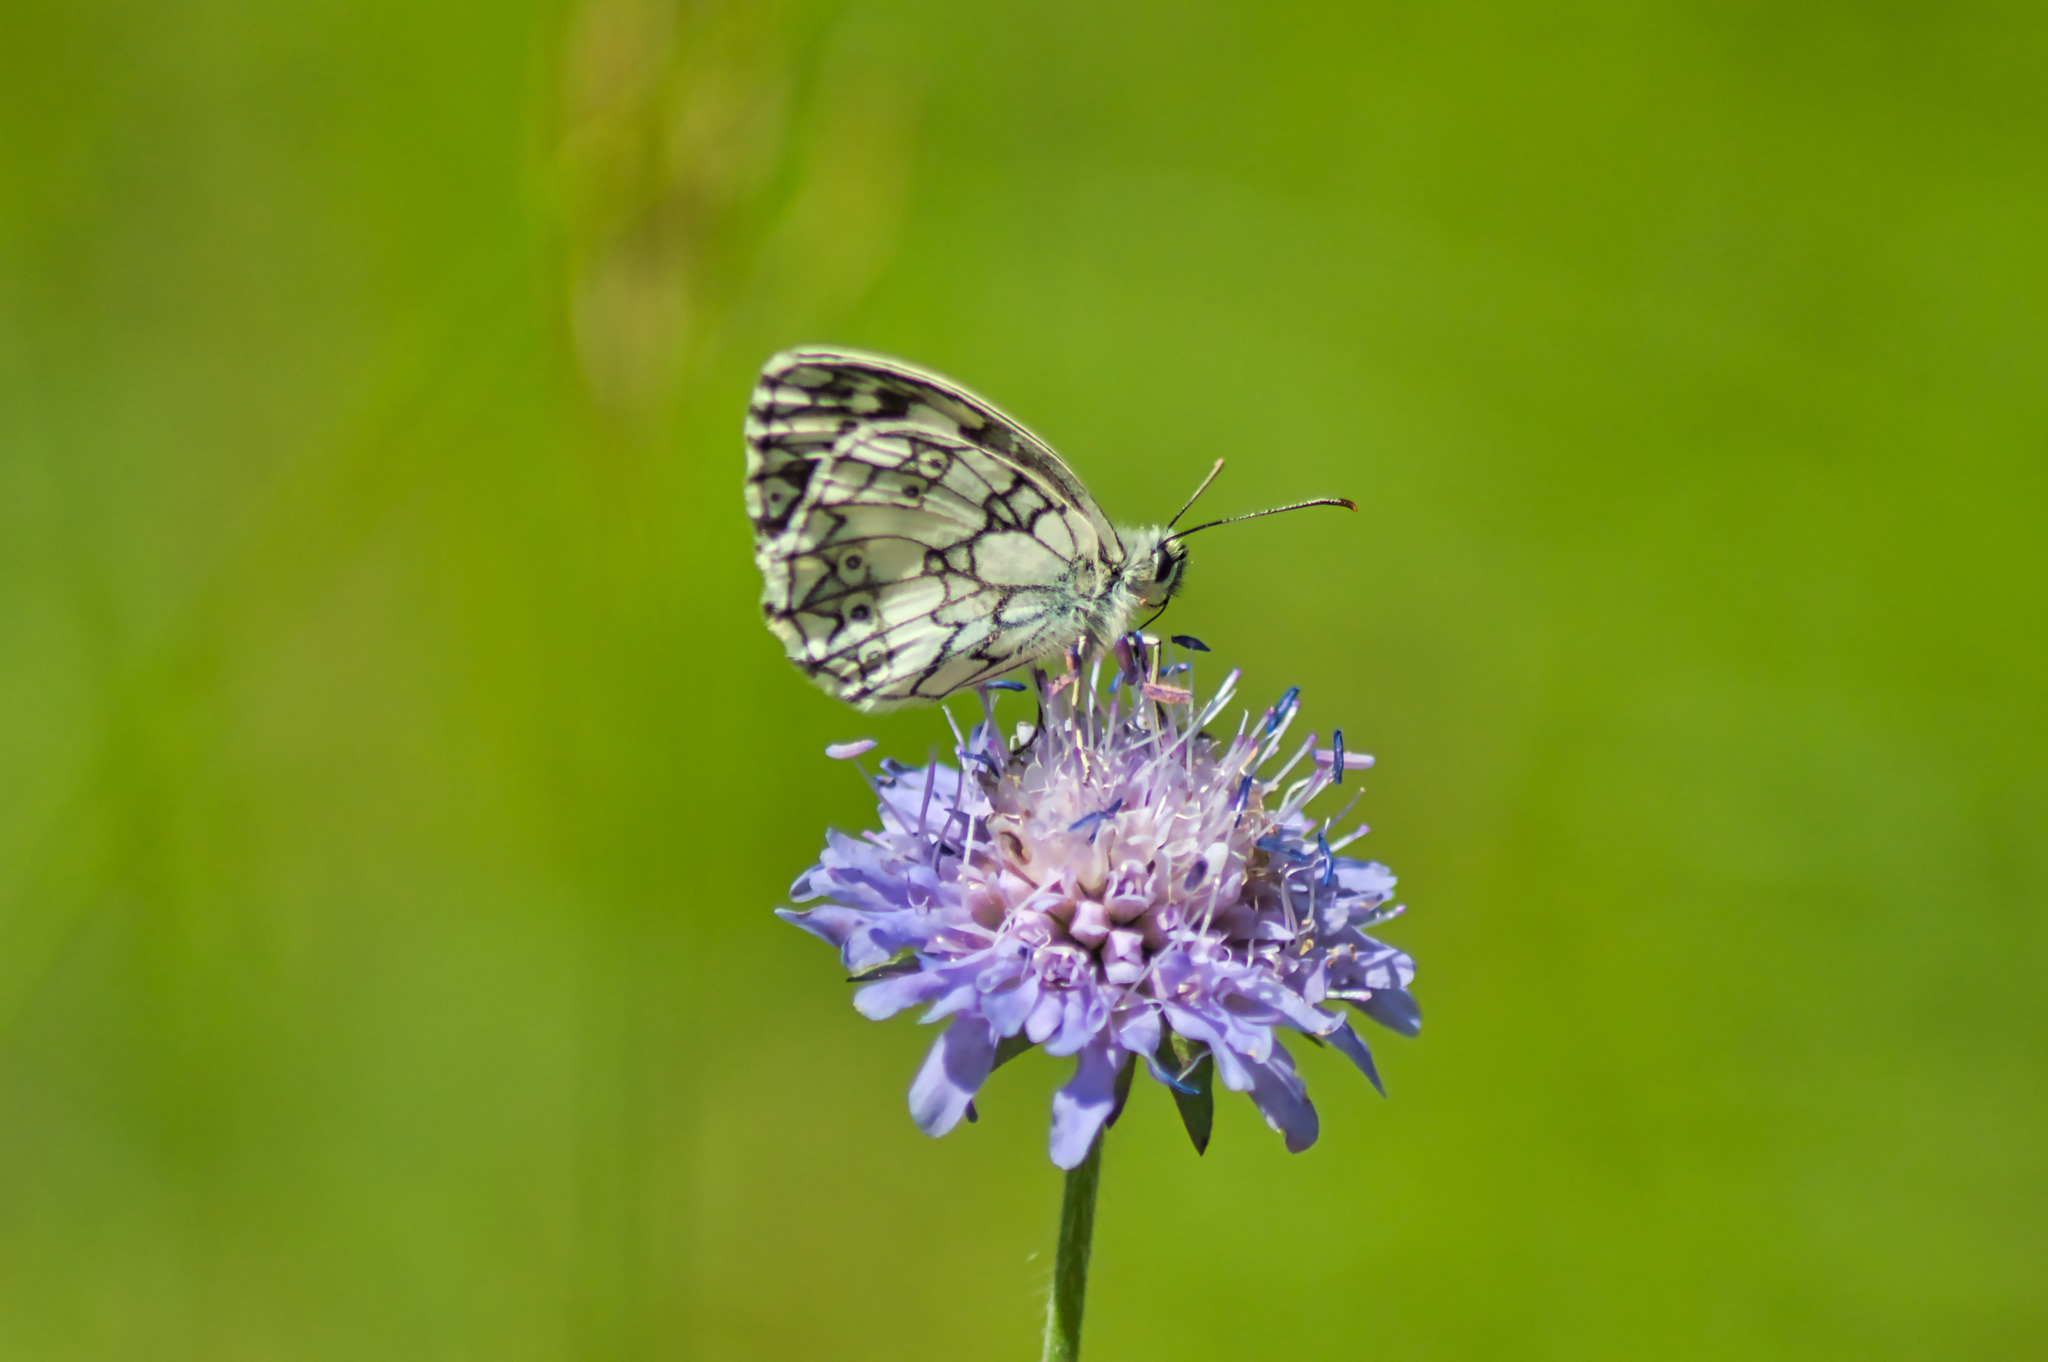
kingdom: Animalia
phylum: Arthropoda
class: Insecta
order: Lepidoptera
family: Nymphalidae
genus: Melanargia
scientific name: Melanargia galathea
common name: Marbled white
